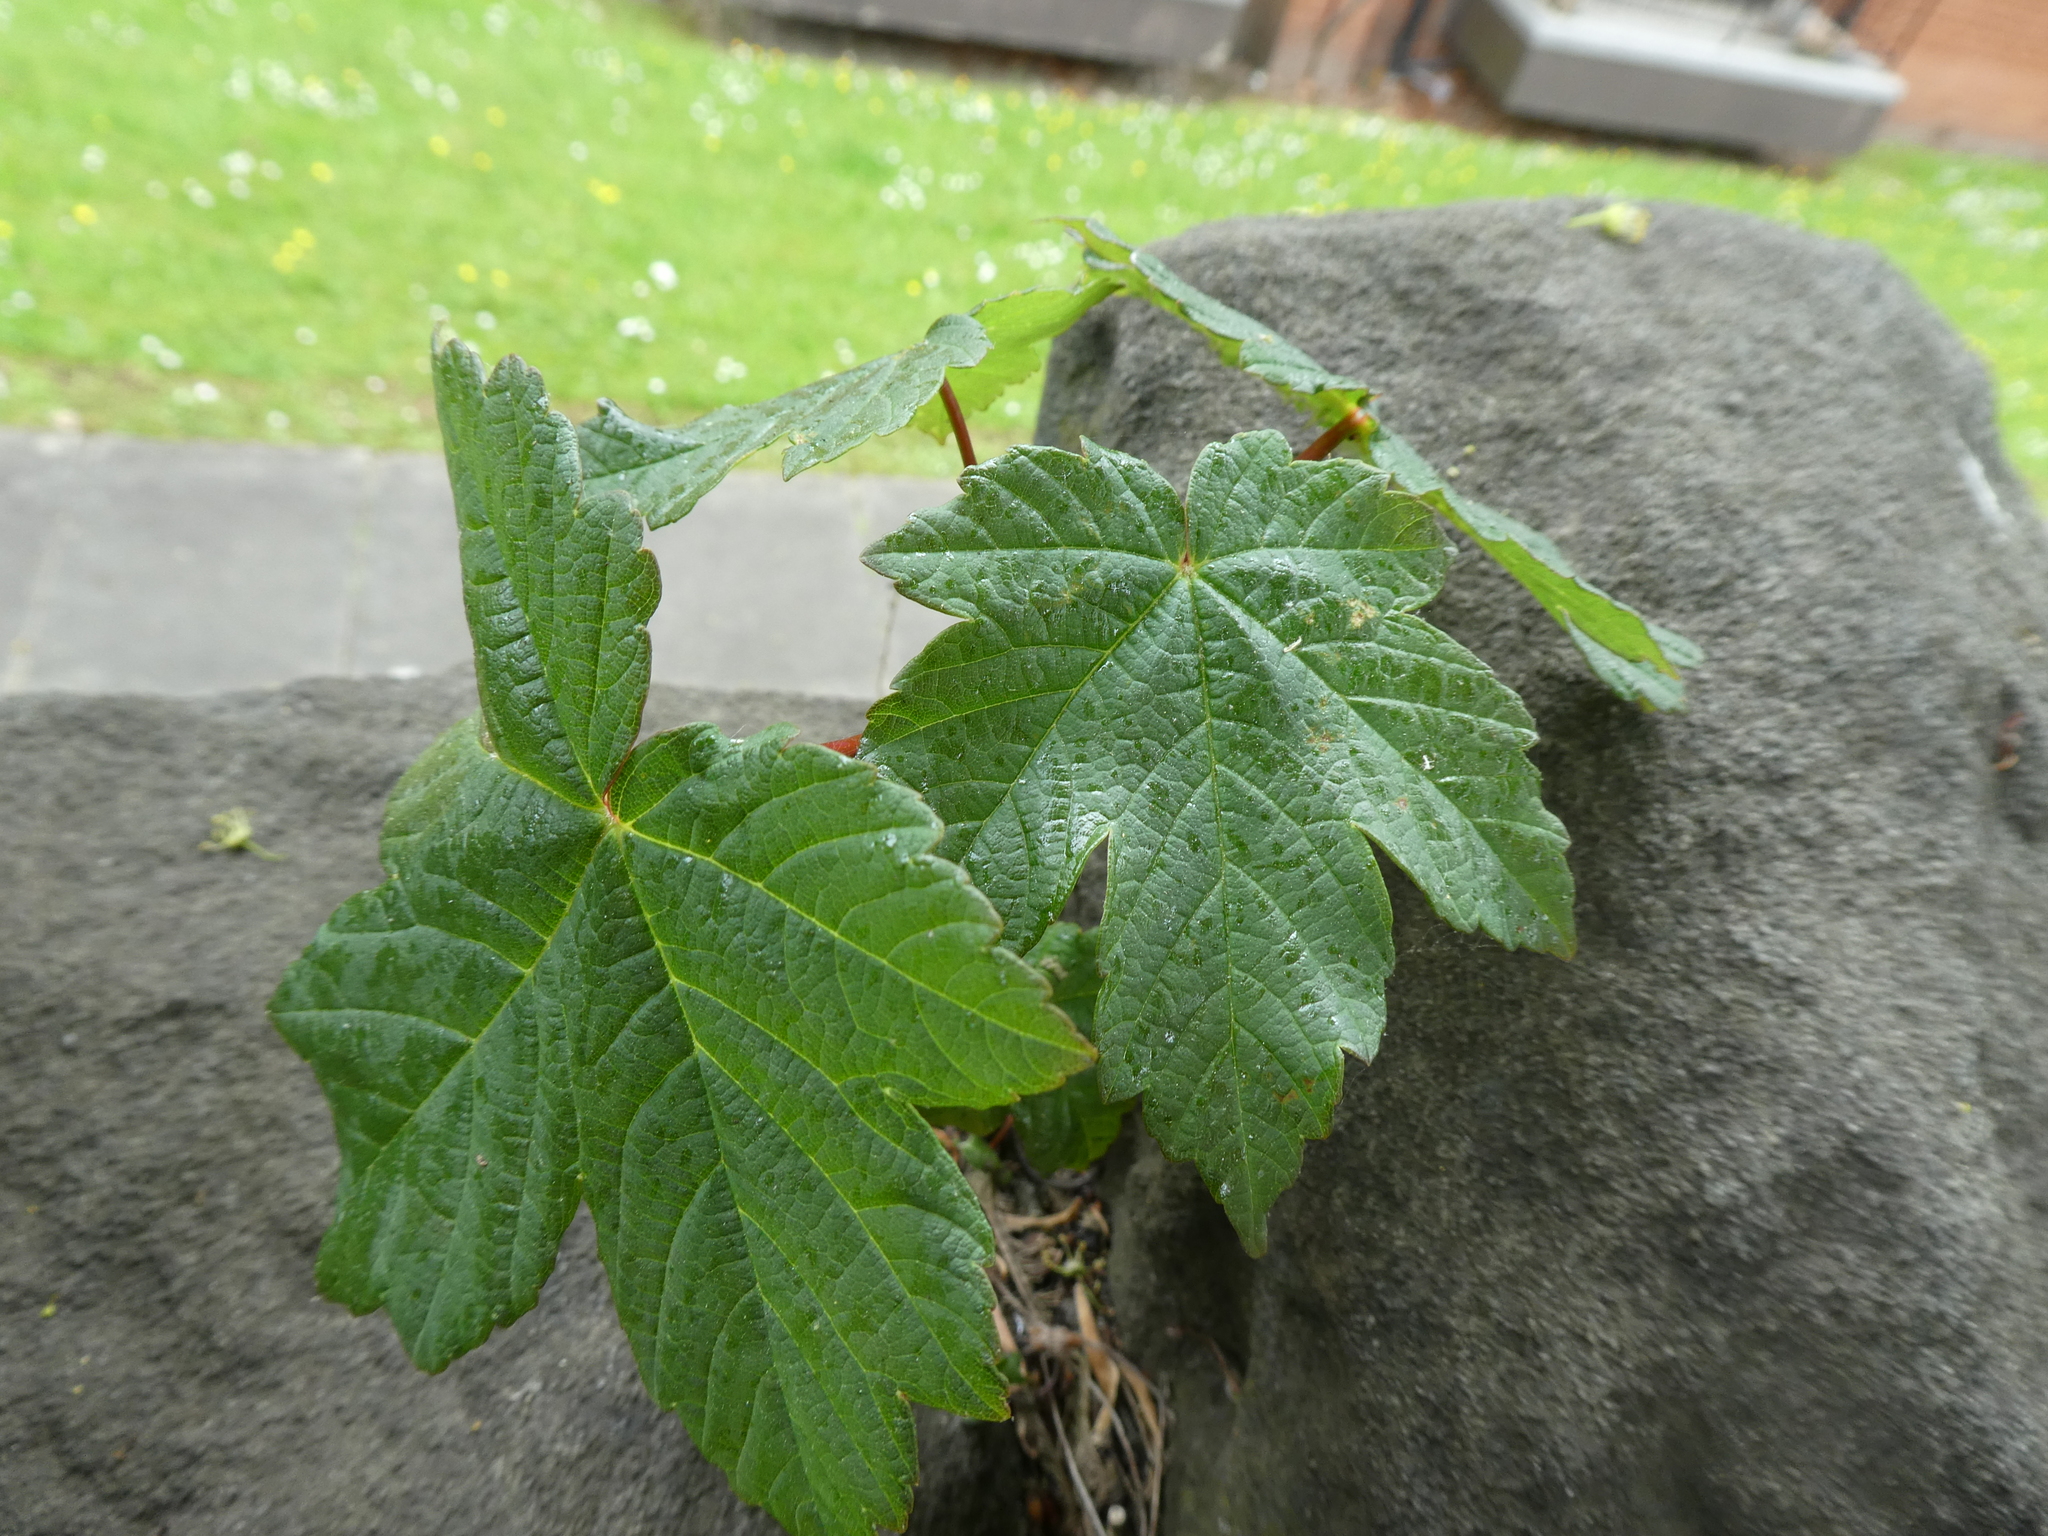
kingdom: Plantae
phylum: Tracheophyta
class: Magnoliopsida
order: Sapindales
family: Sapindaceae
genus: Acer
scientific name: Acer pseudoplatanus
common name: Sycamore
